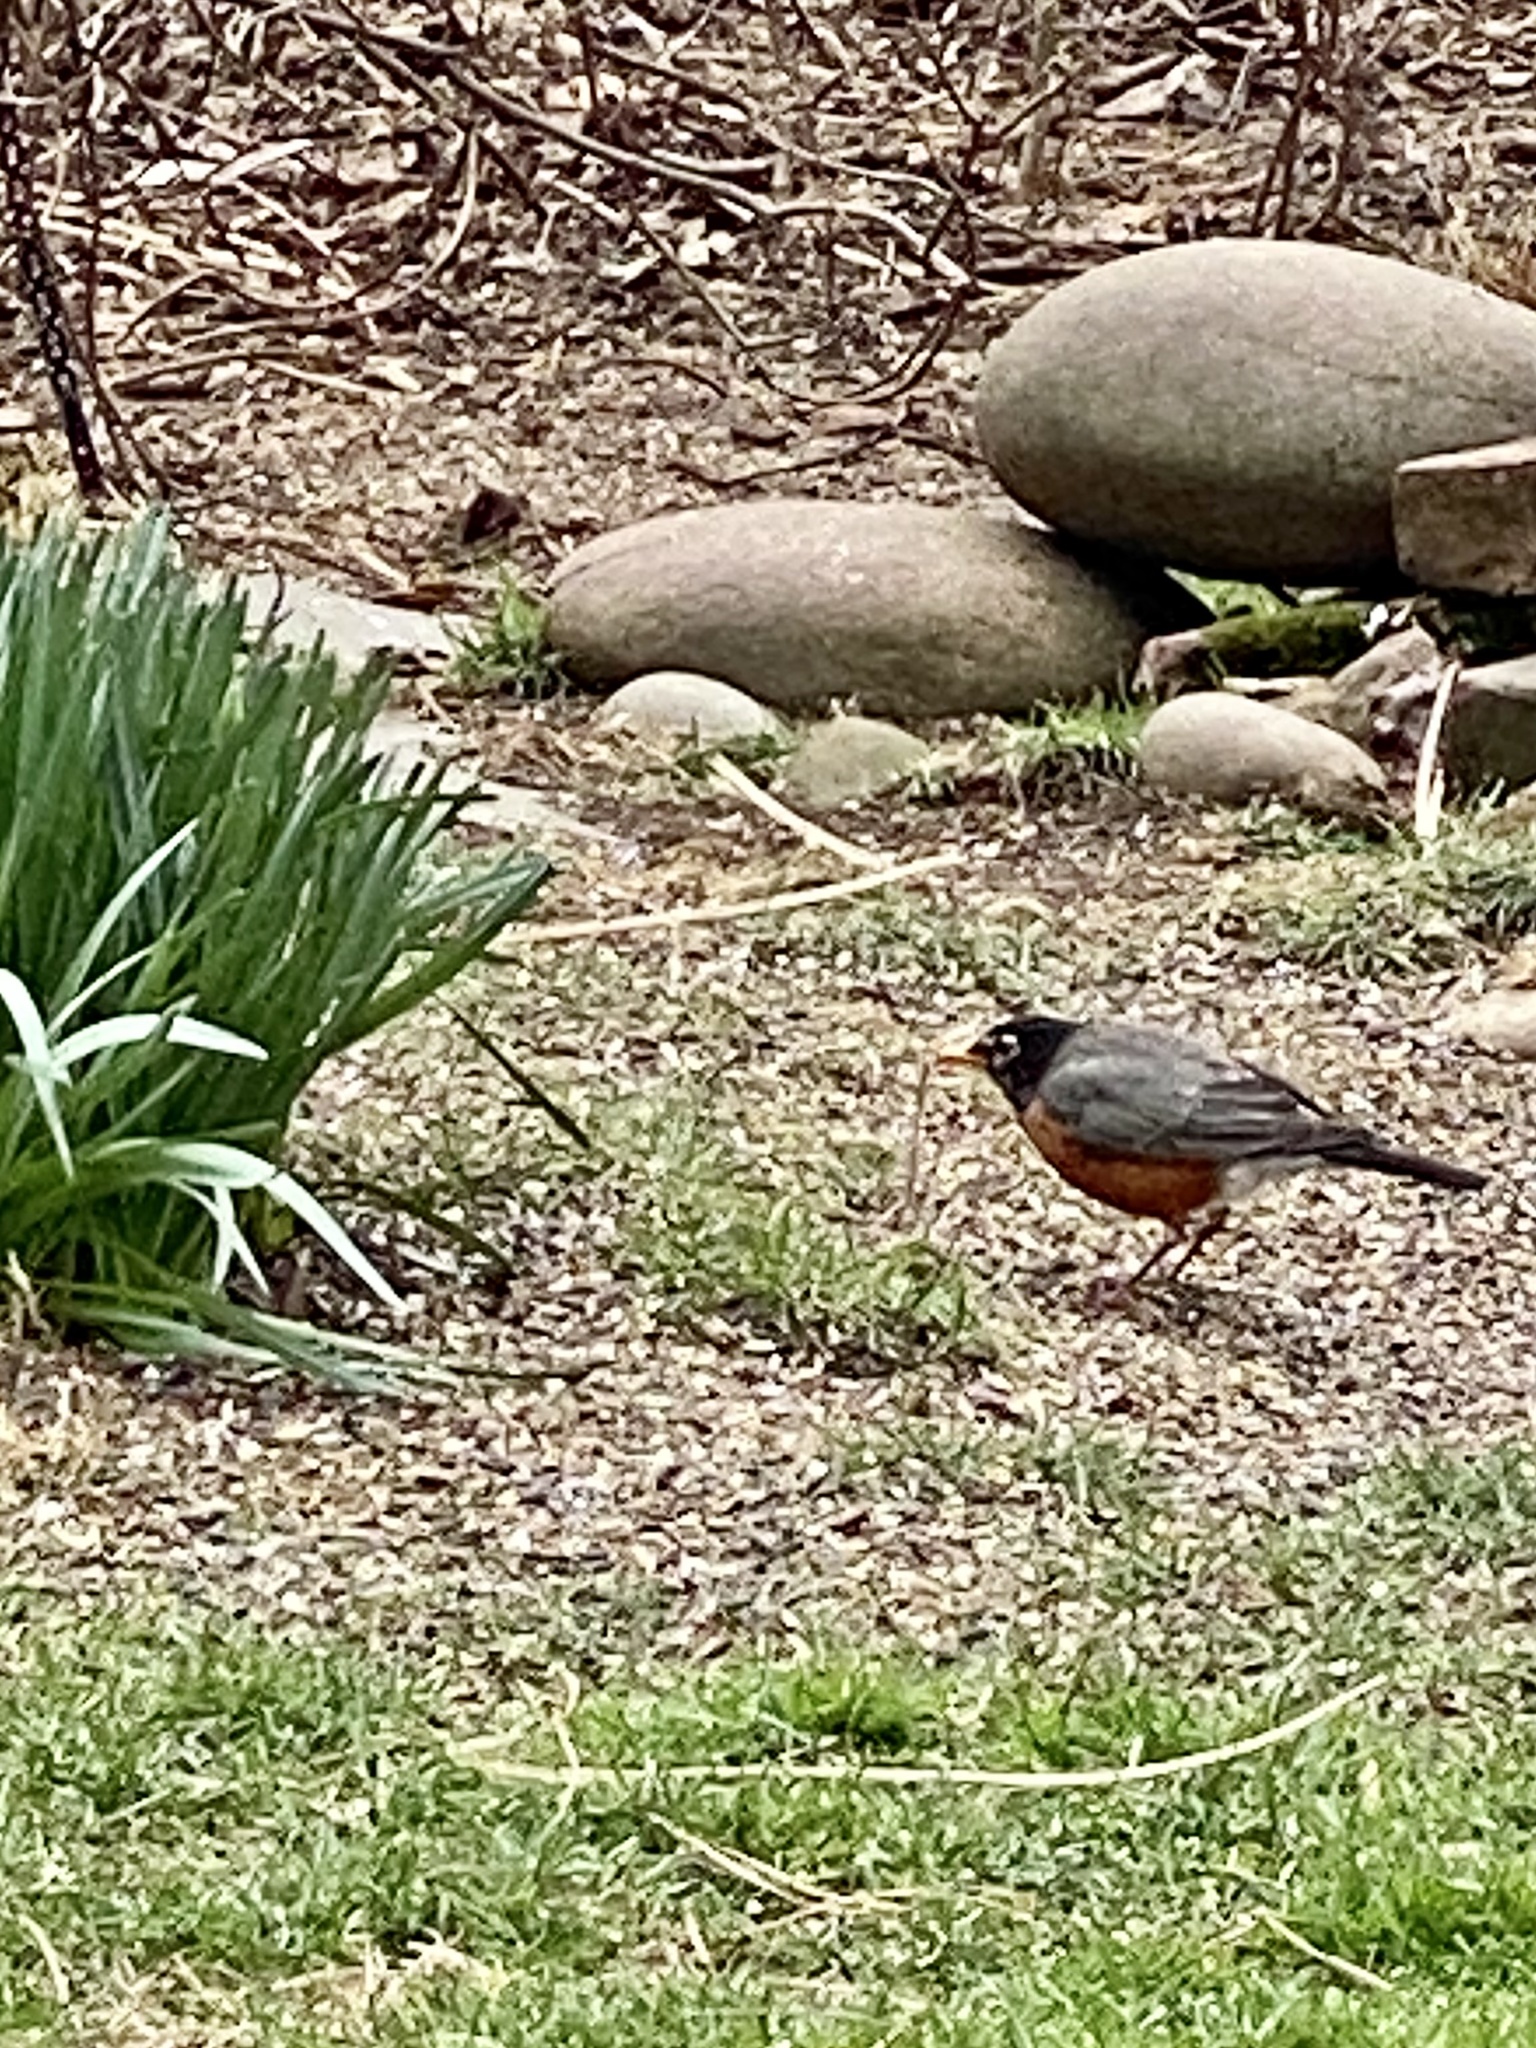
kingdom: Animalia
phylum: Chordata
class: Aves
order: Passeriformes
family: Turdidae
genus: Turdus
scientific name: Turdus migratorius
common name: American robin
